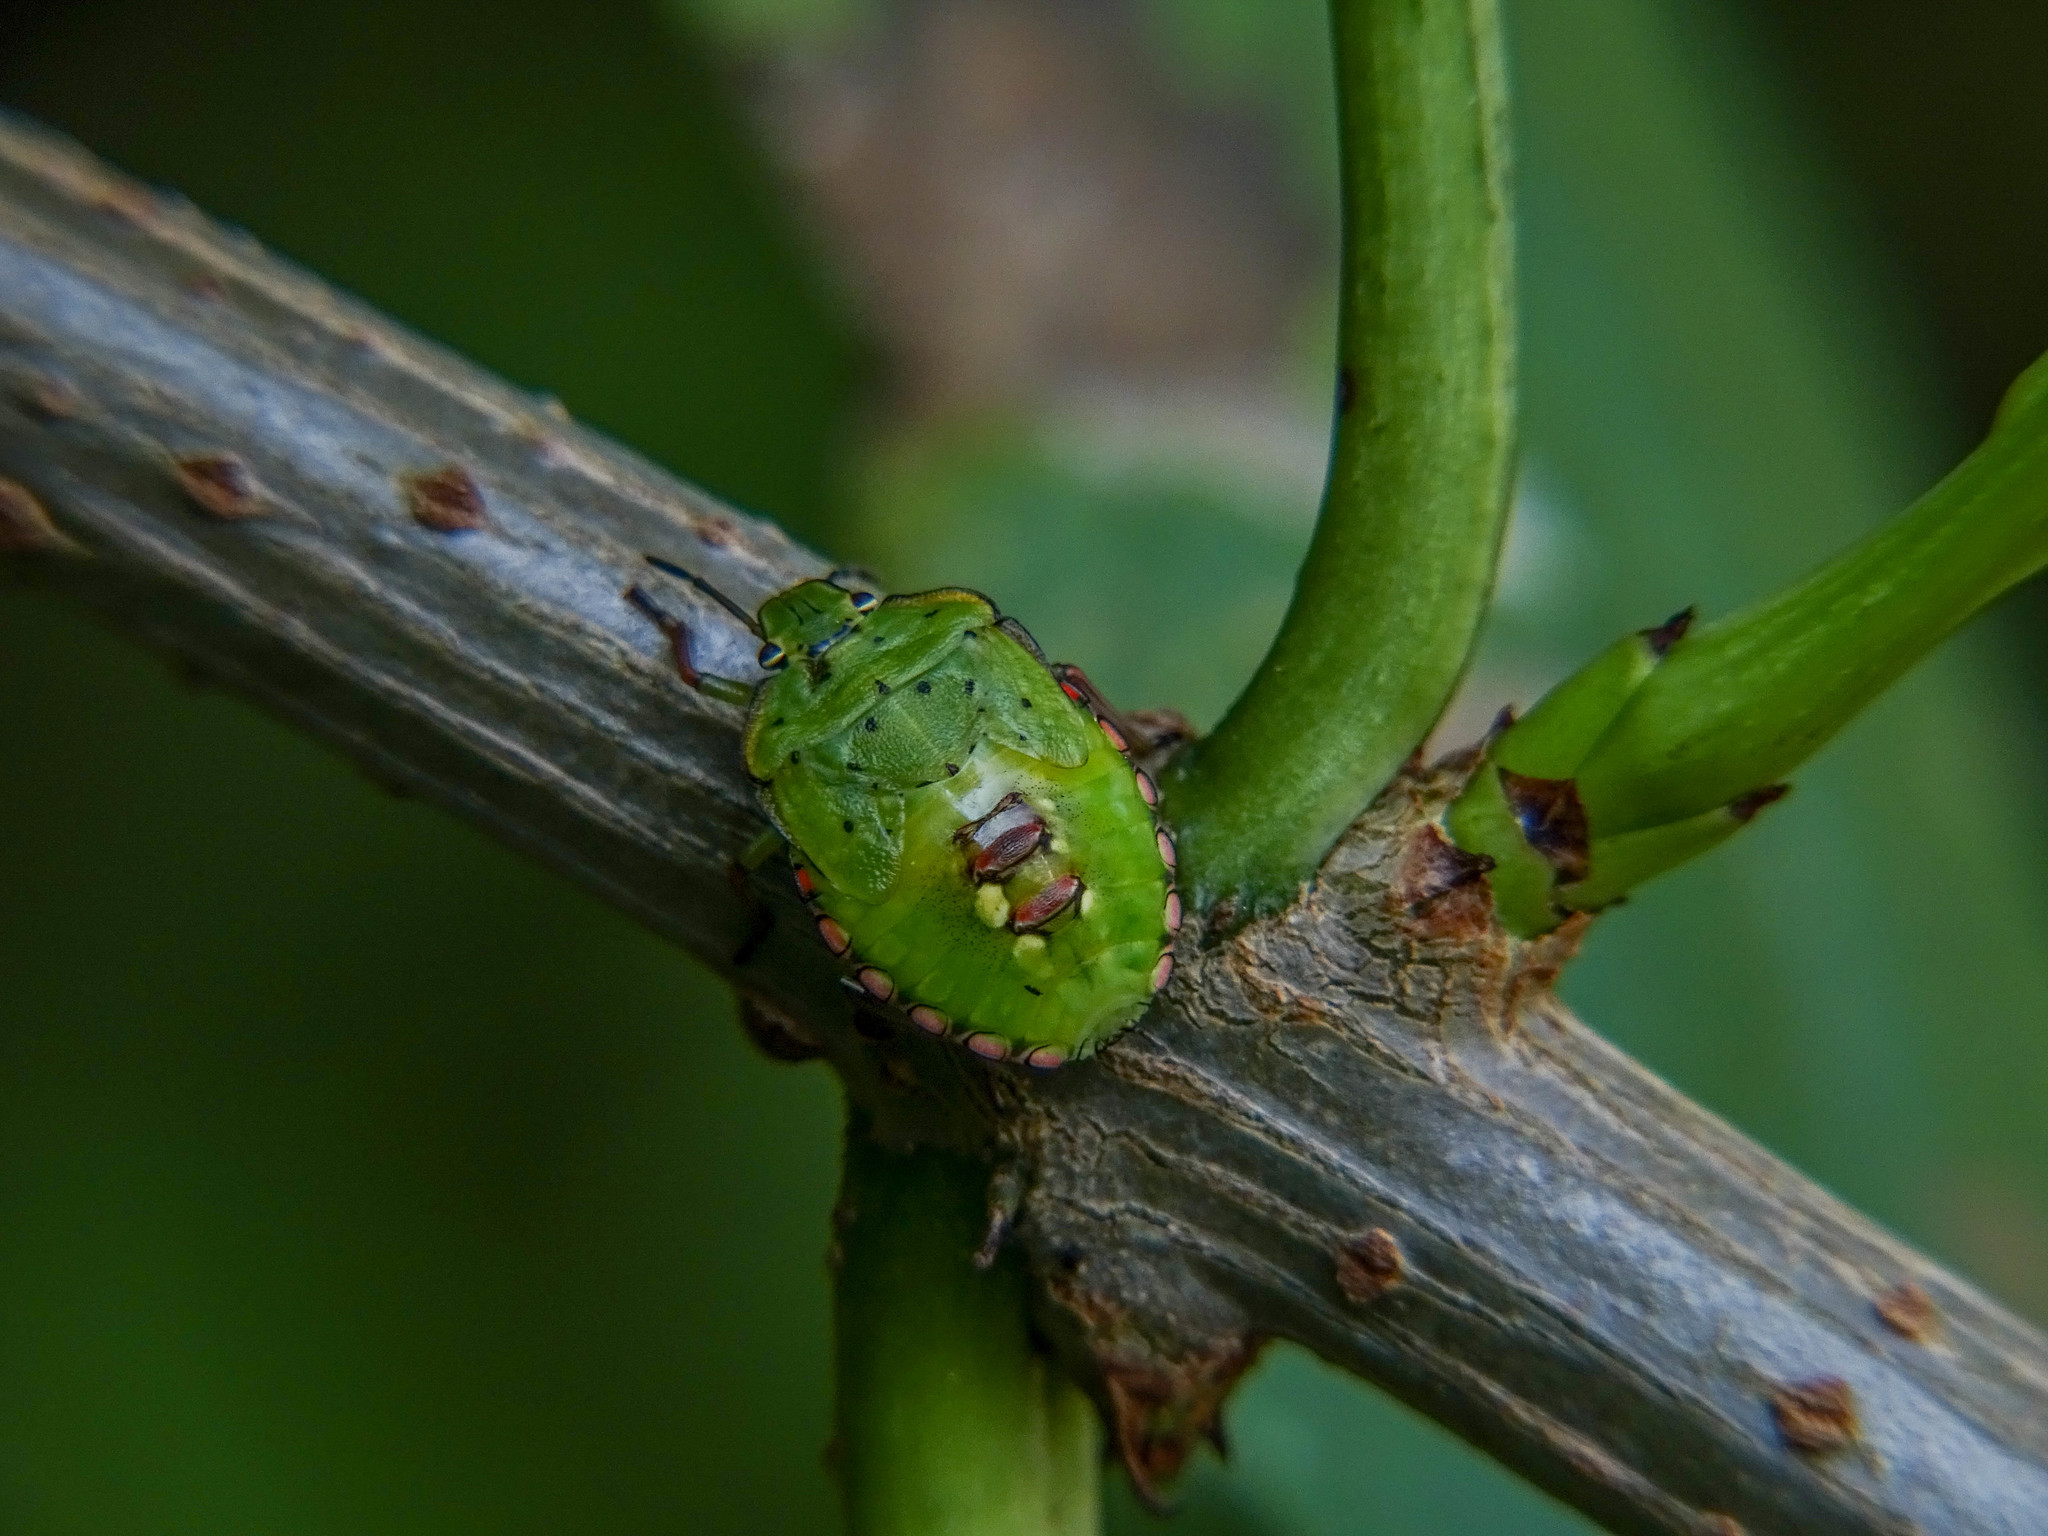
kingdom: Animalia
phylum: Arthropoda
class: Insecta
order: Hemiptera
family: Pentatomidae
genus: Nezara
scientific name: Nezara viridula
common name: Southern green stink bug
